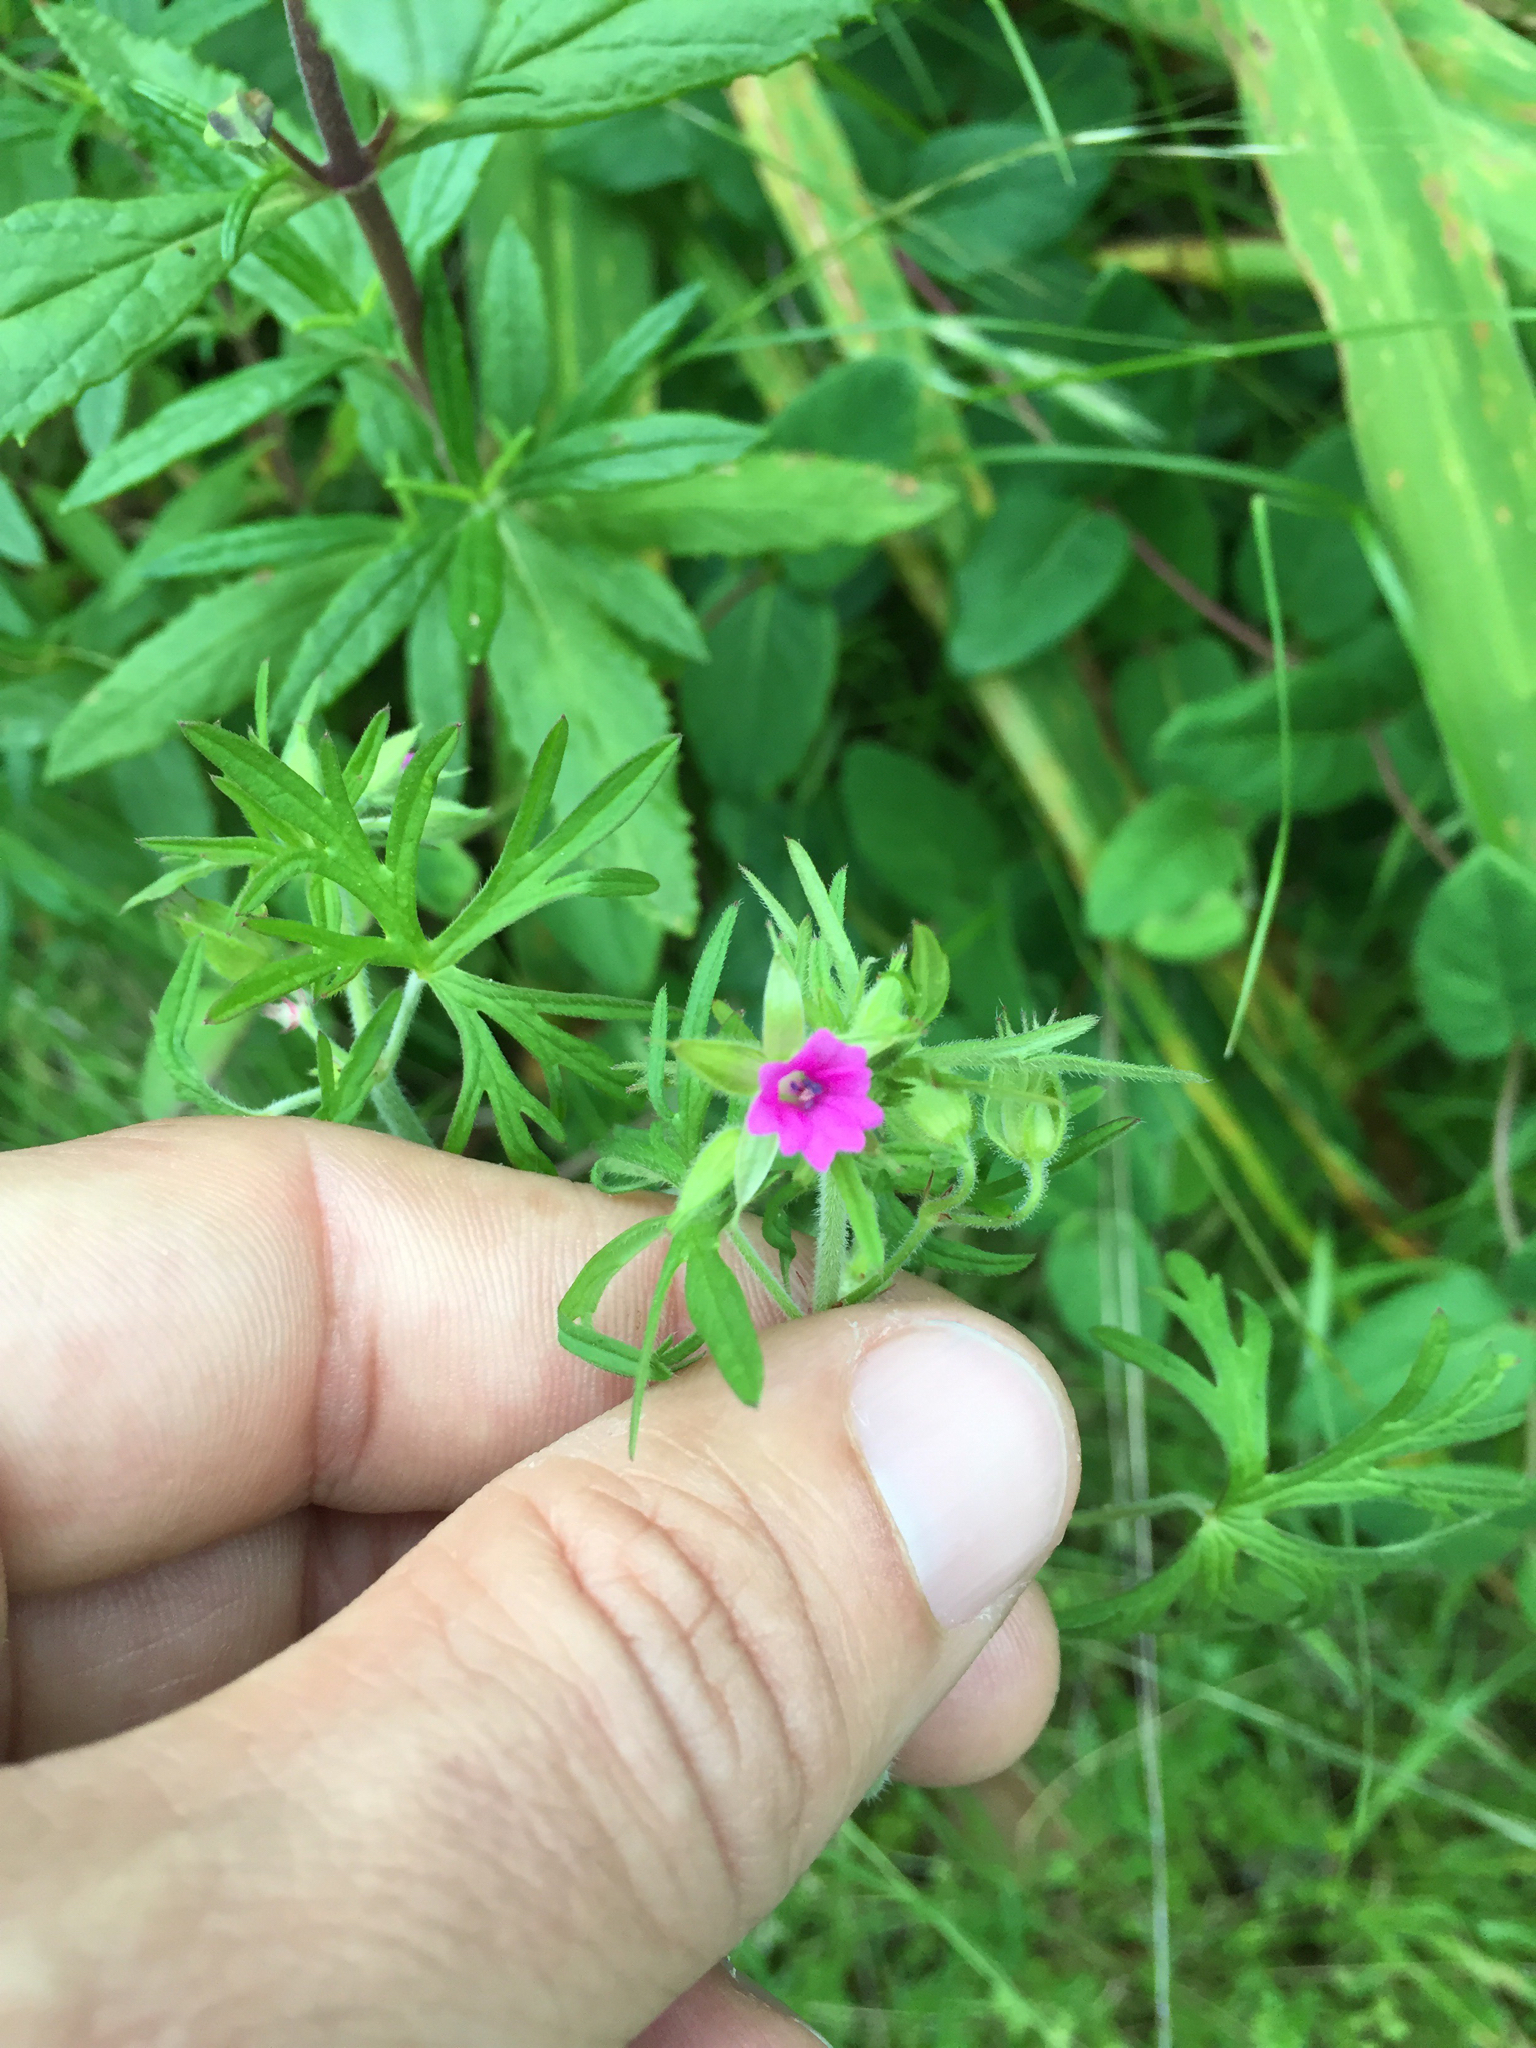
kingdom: Plantae
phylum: Tracheophyta
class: Magnoliopsida
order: Geraniales
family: Geraniaceae
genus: Geranium
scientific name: Geranium dissectum
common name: Cut-leaved crane's-bill
